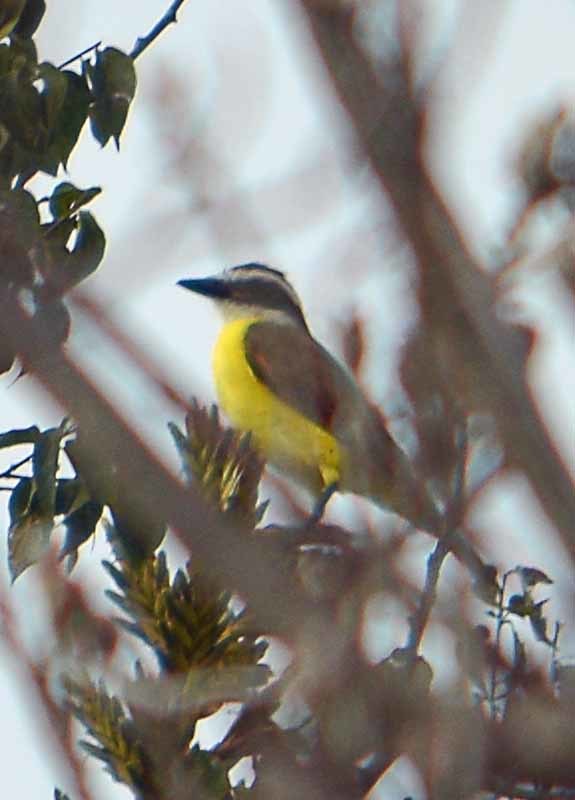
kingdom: Animalia
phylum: Chordata
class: Aves
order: Passeriformes
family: Tyrannidae
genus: Pitangus
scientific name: Pitangus sulphuratus
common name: Great kiskadee
